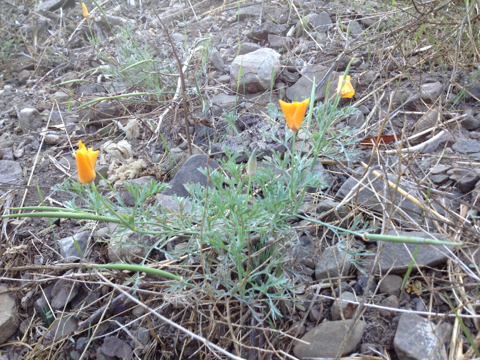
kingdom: Plantae
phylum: Tracheophyta
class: Magnoliopsida
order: Ranunculales
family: Papaveraceae
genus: Eschscholzia
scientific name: Eschscholzia californica
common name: California poppy
